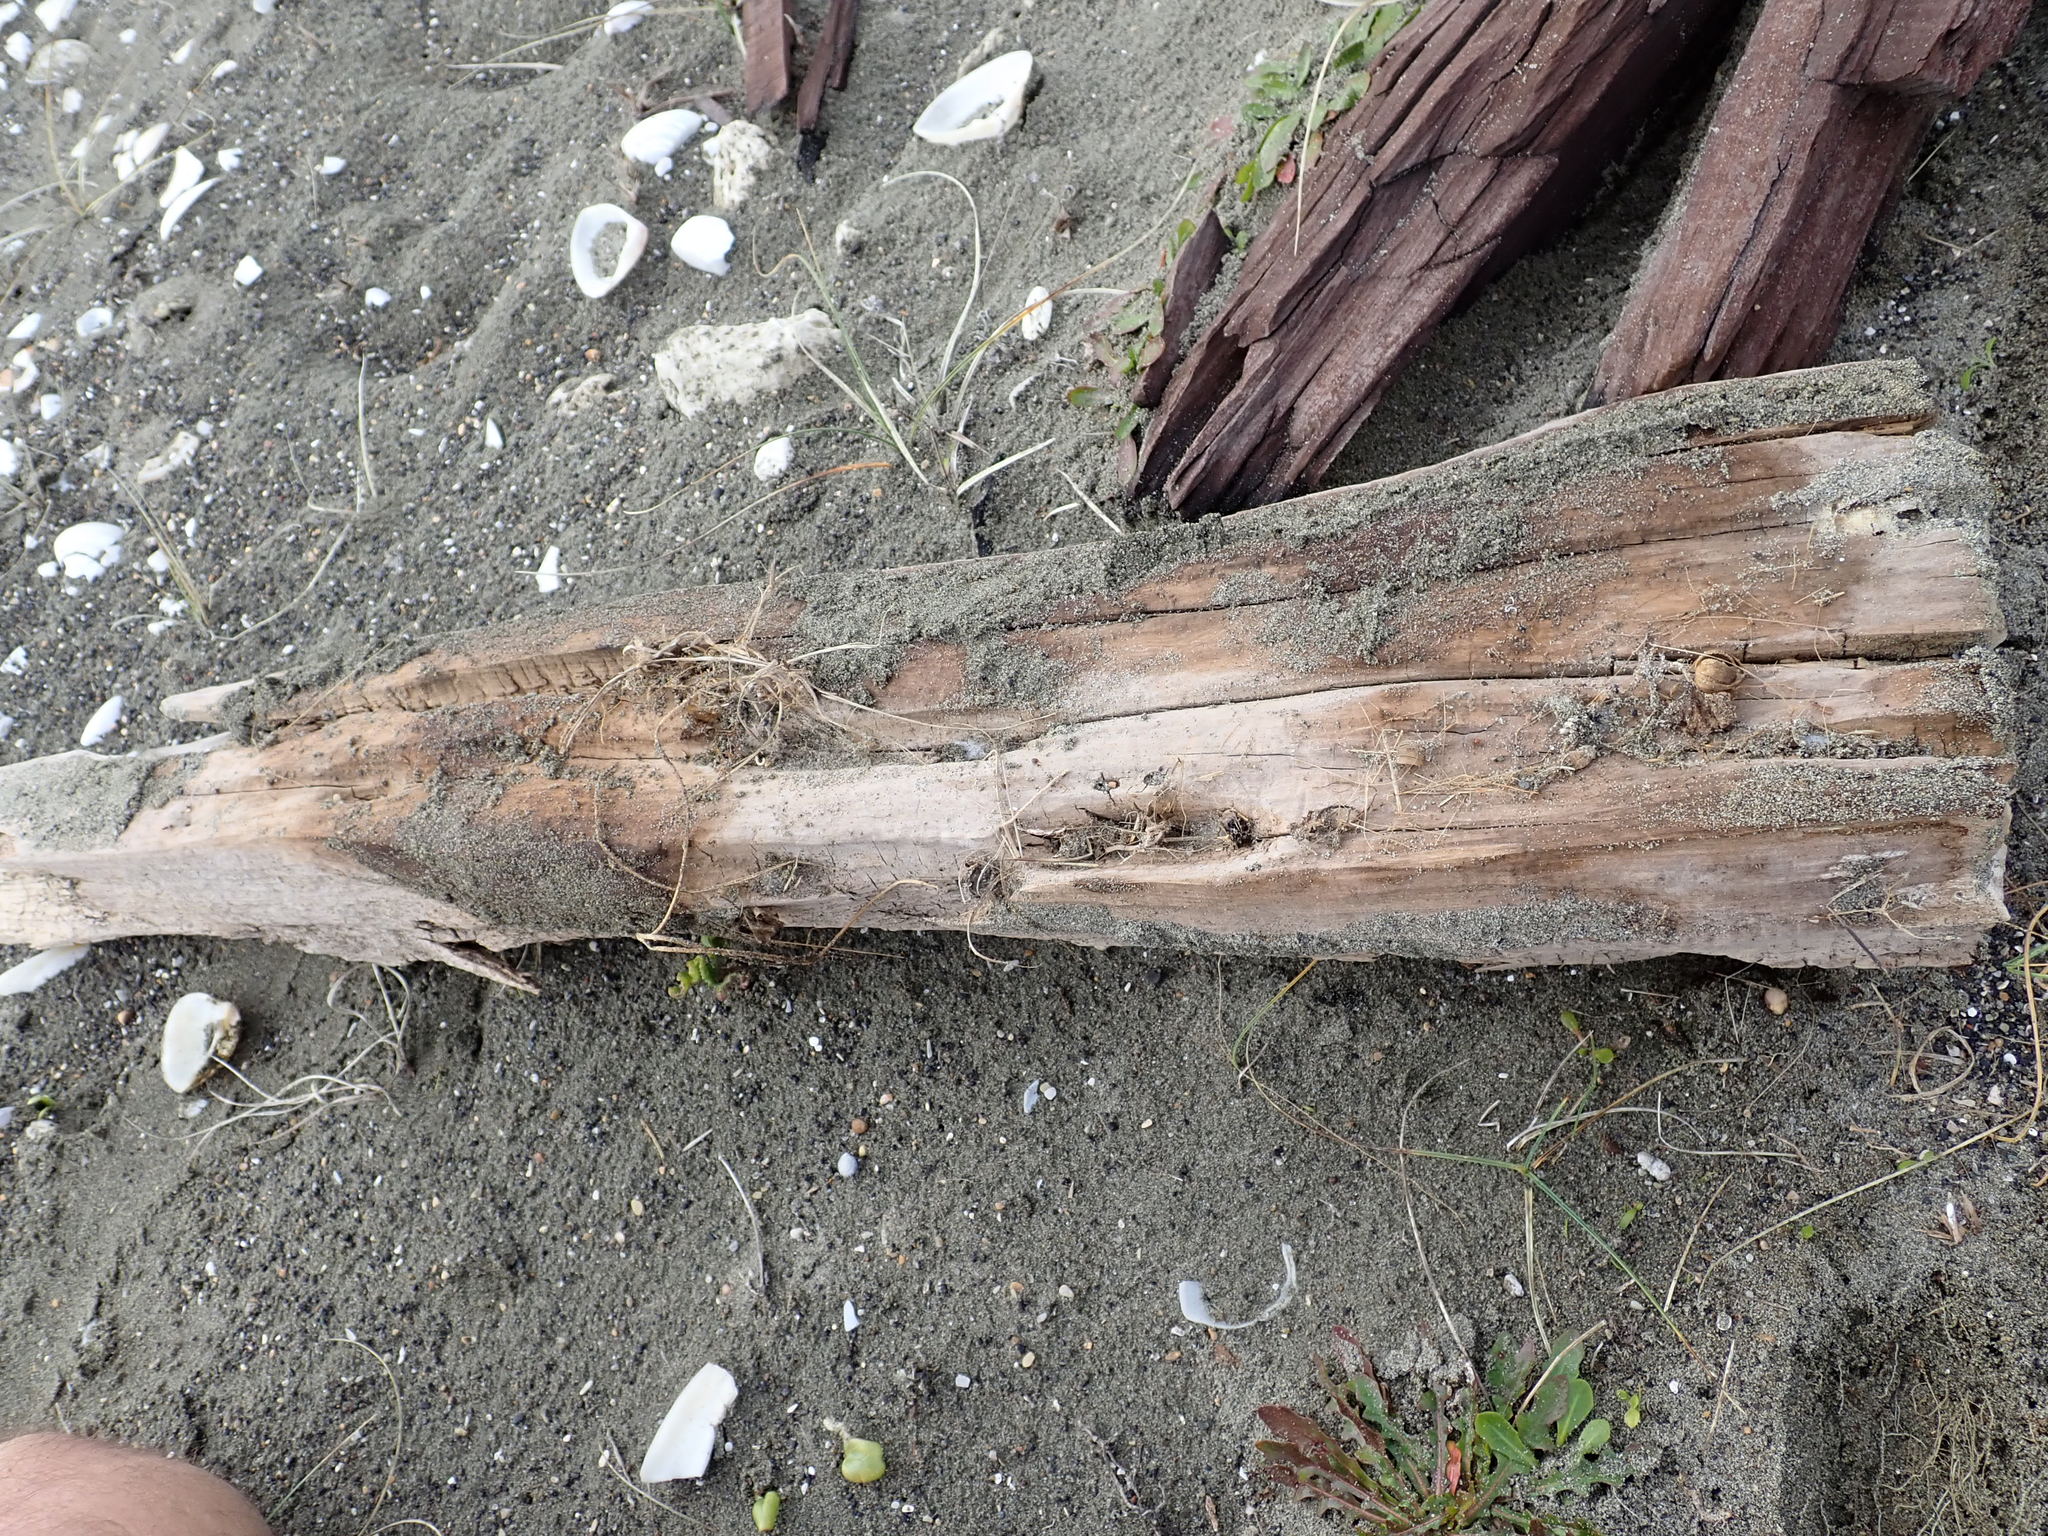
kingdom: Animalia
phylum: Arthropoda
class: Arachnida
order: Araneae
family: Theridiidae
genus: Steatoda
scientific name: Steatoda capensis
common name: Cobweb weaver
